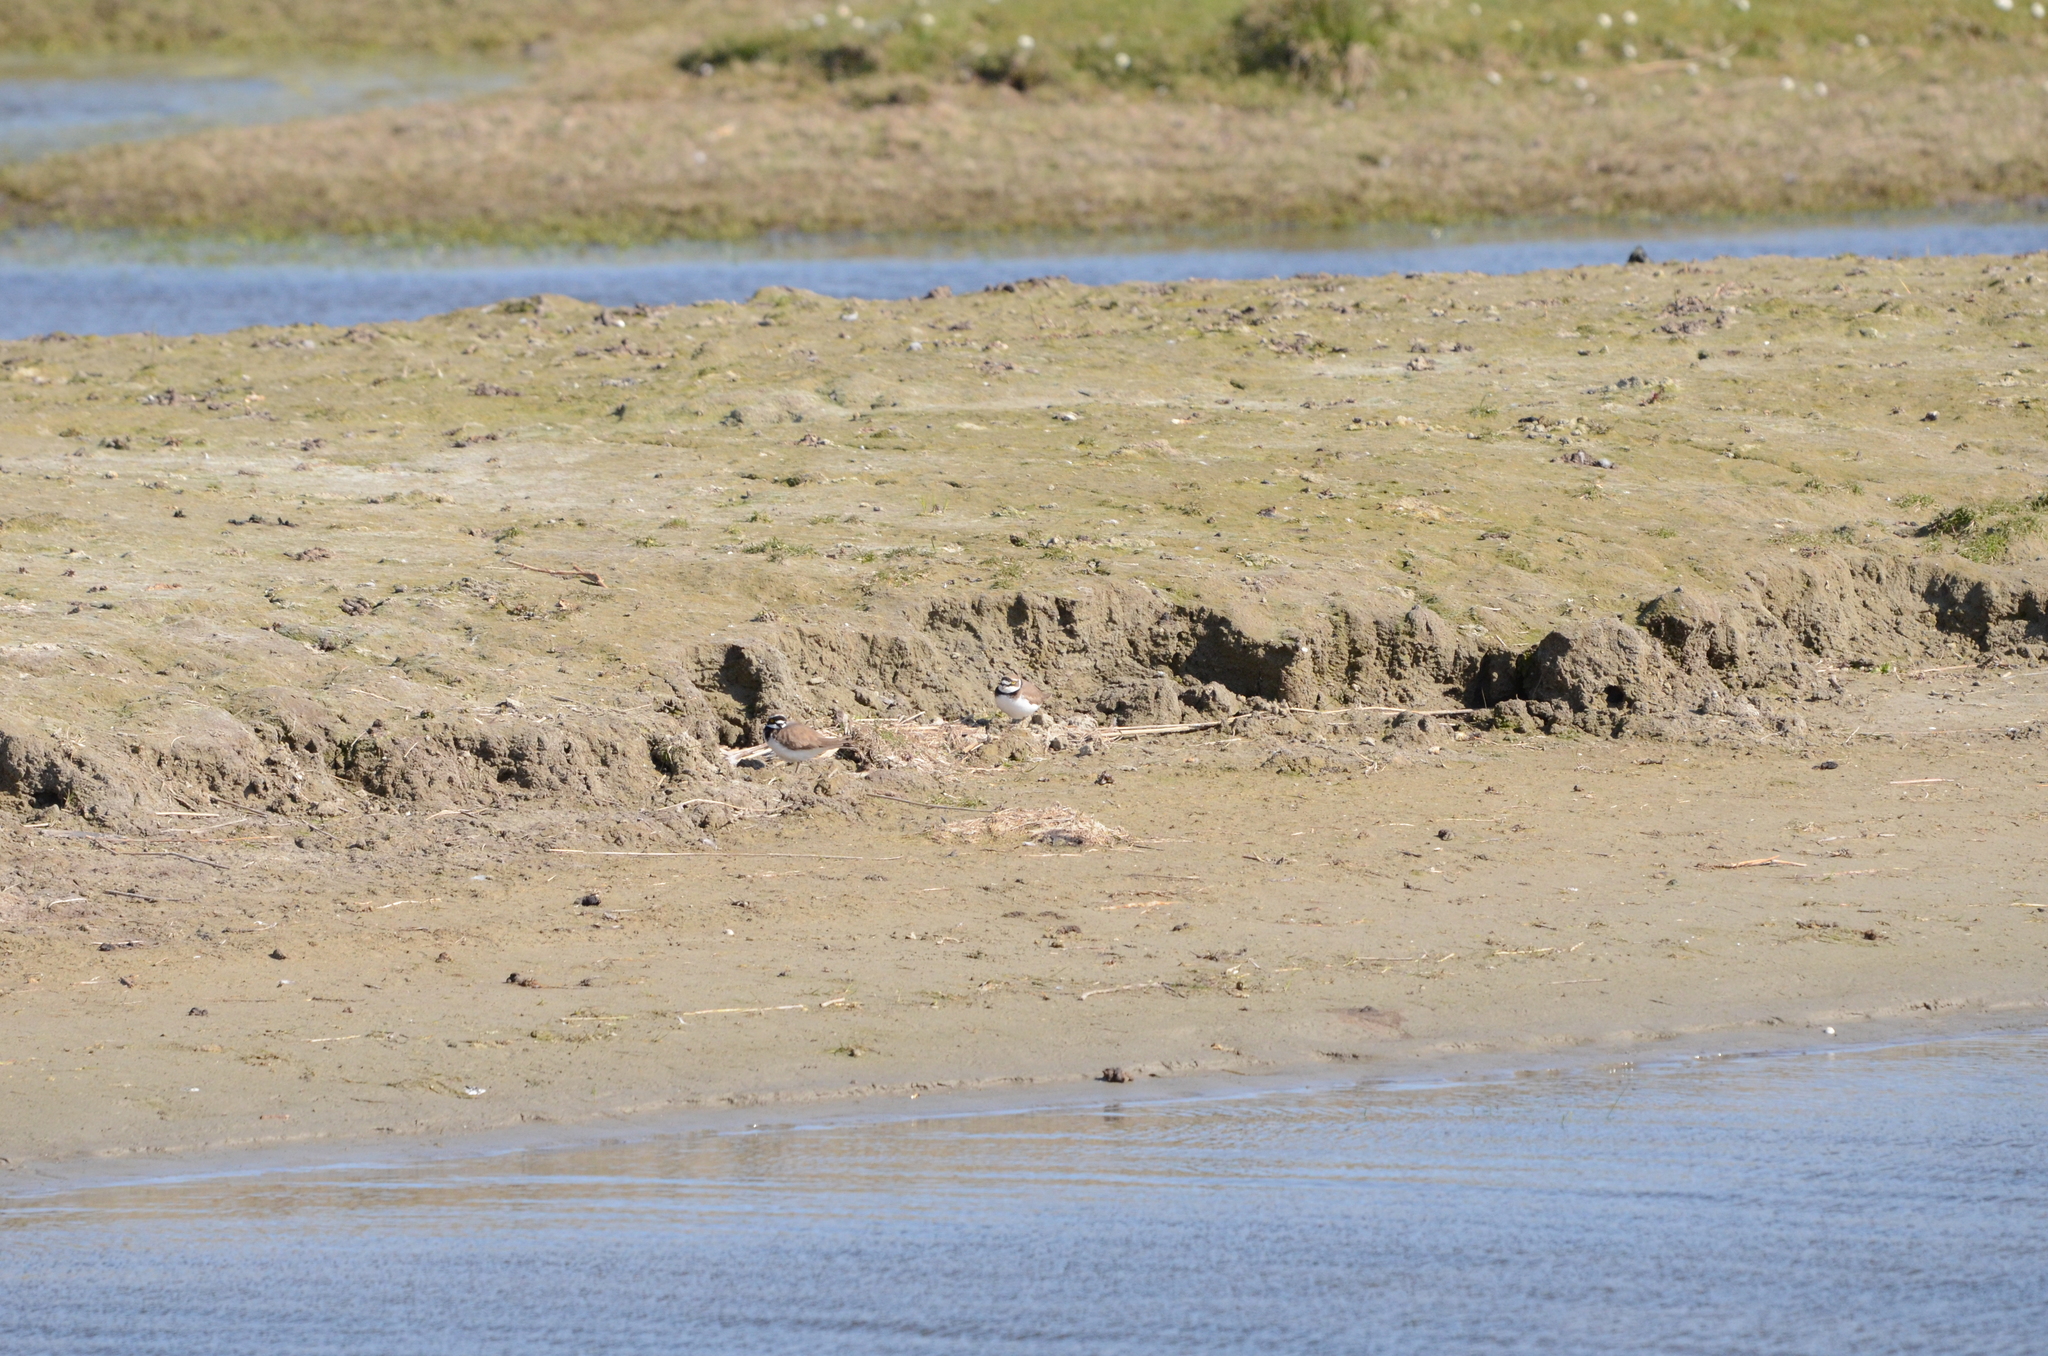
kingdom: Animalia
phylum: Chordata
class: Aves
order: Charadriiformes
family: Charadriidae
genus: Charadrius
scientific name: Charadrius dubius
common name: Little ringed plover
